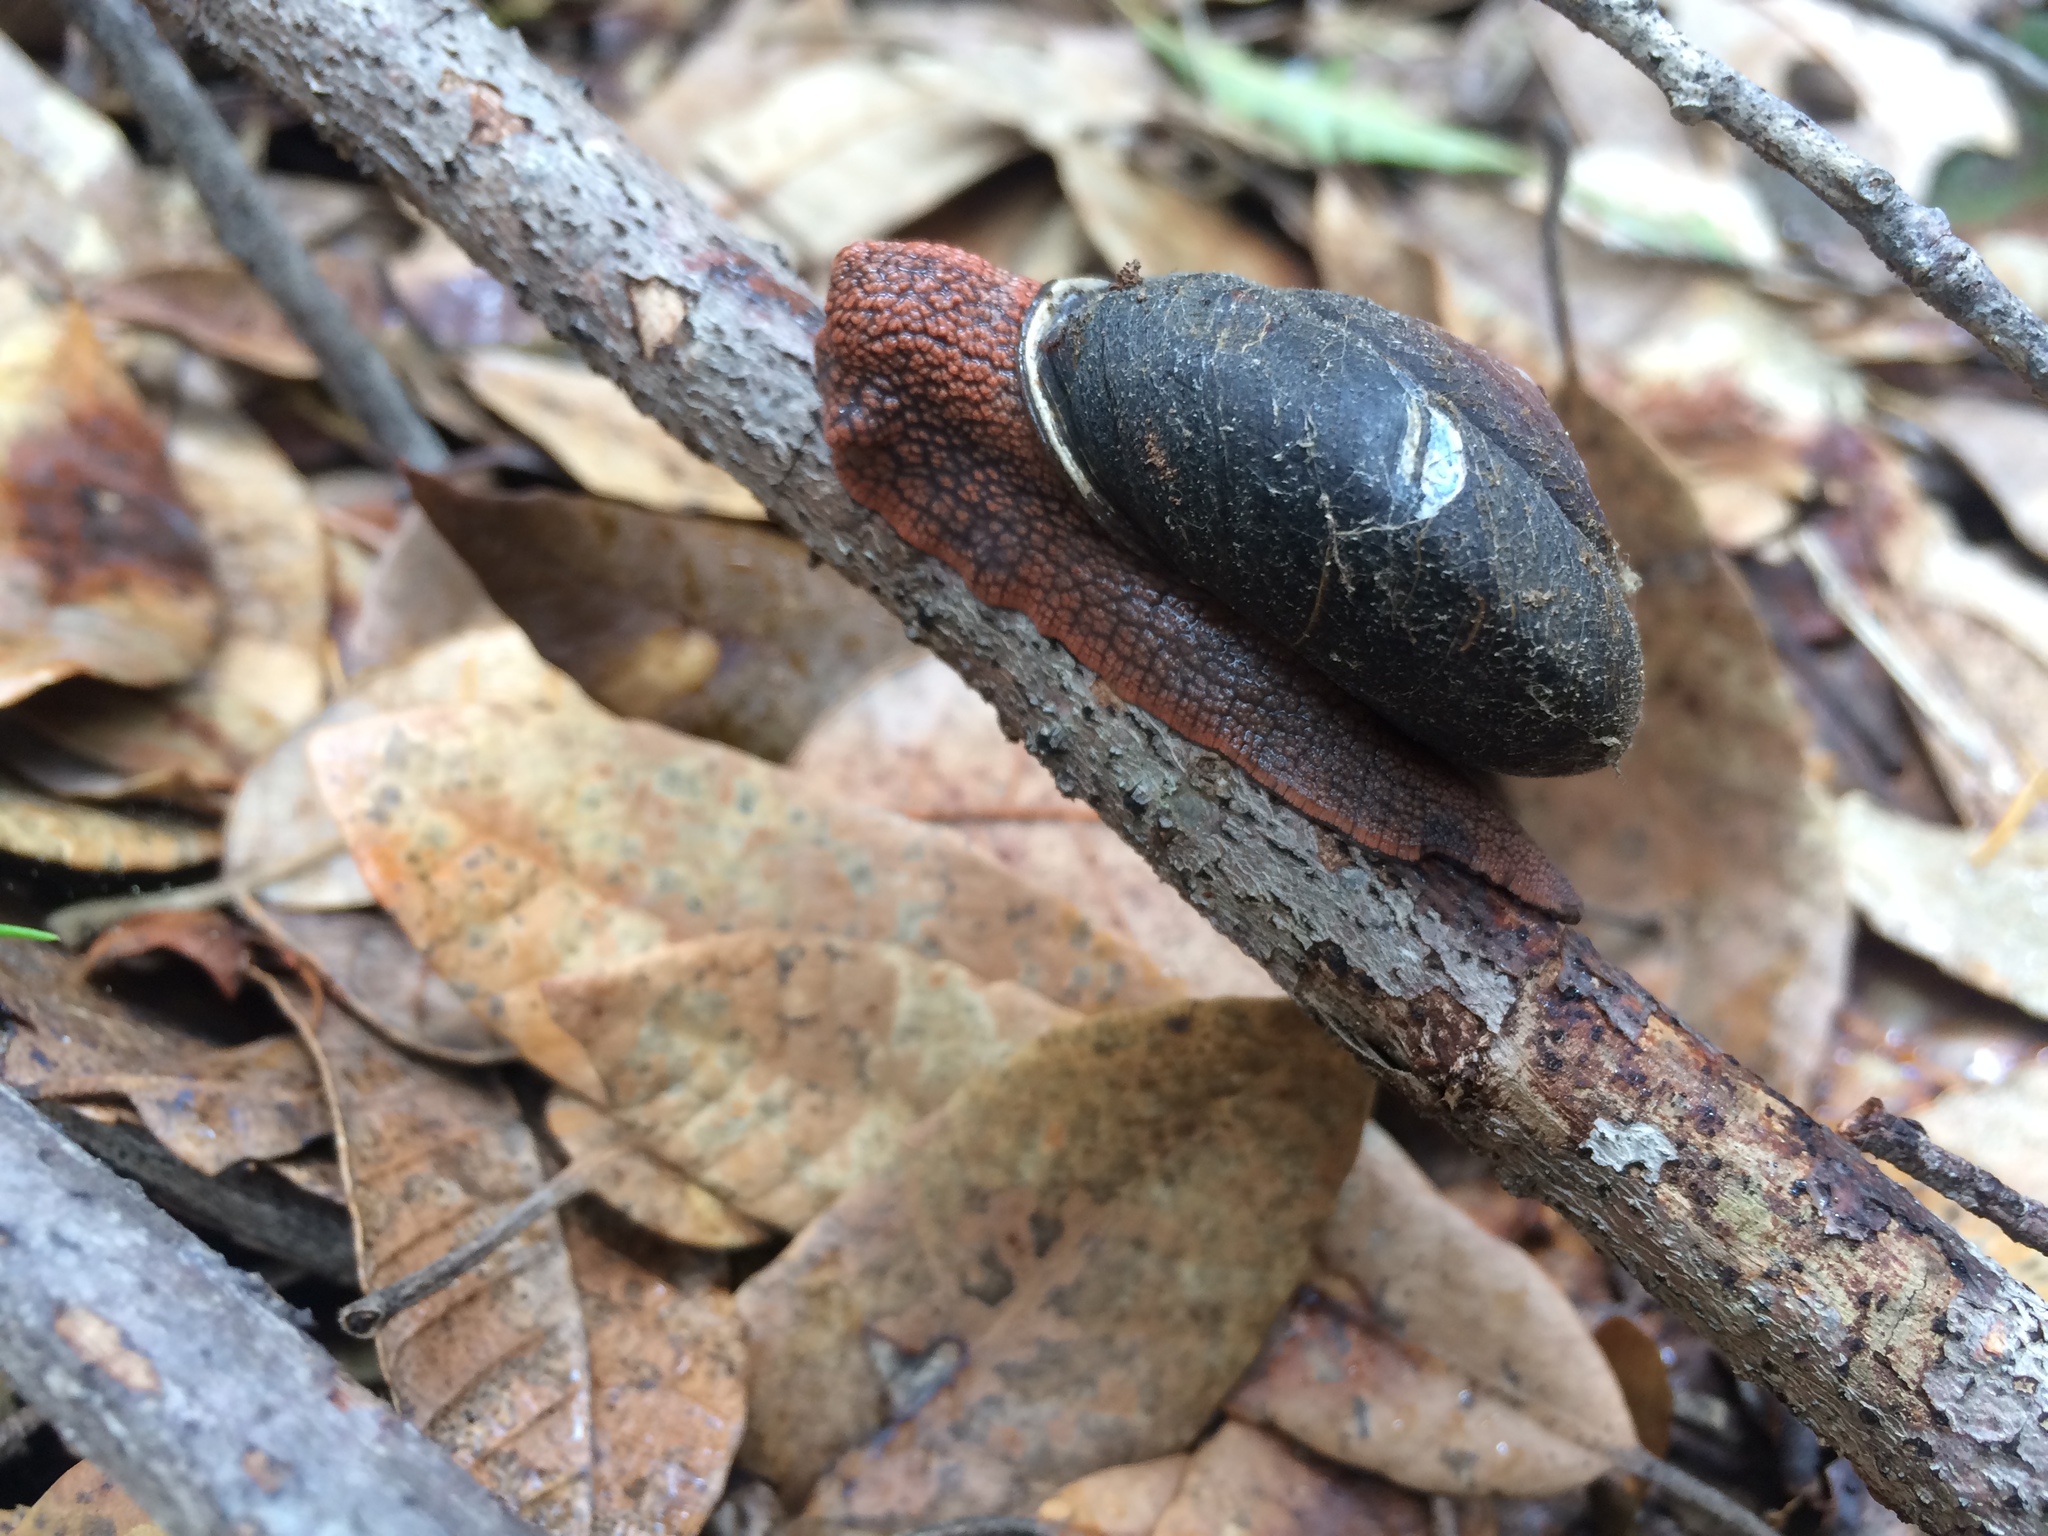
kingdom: Animalia
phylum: Mollusca
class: Gastropoda
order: Stylommatophora
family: Xanthonychidae
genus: Monadenia
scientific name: Monadenia infumata
